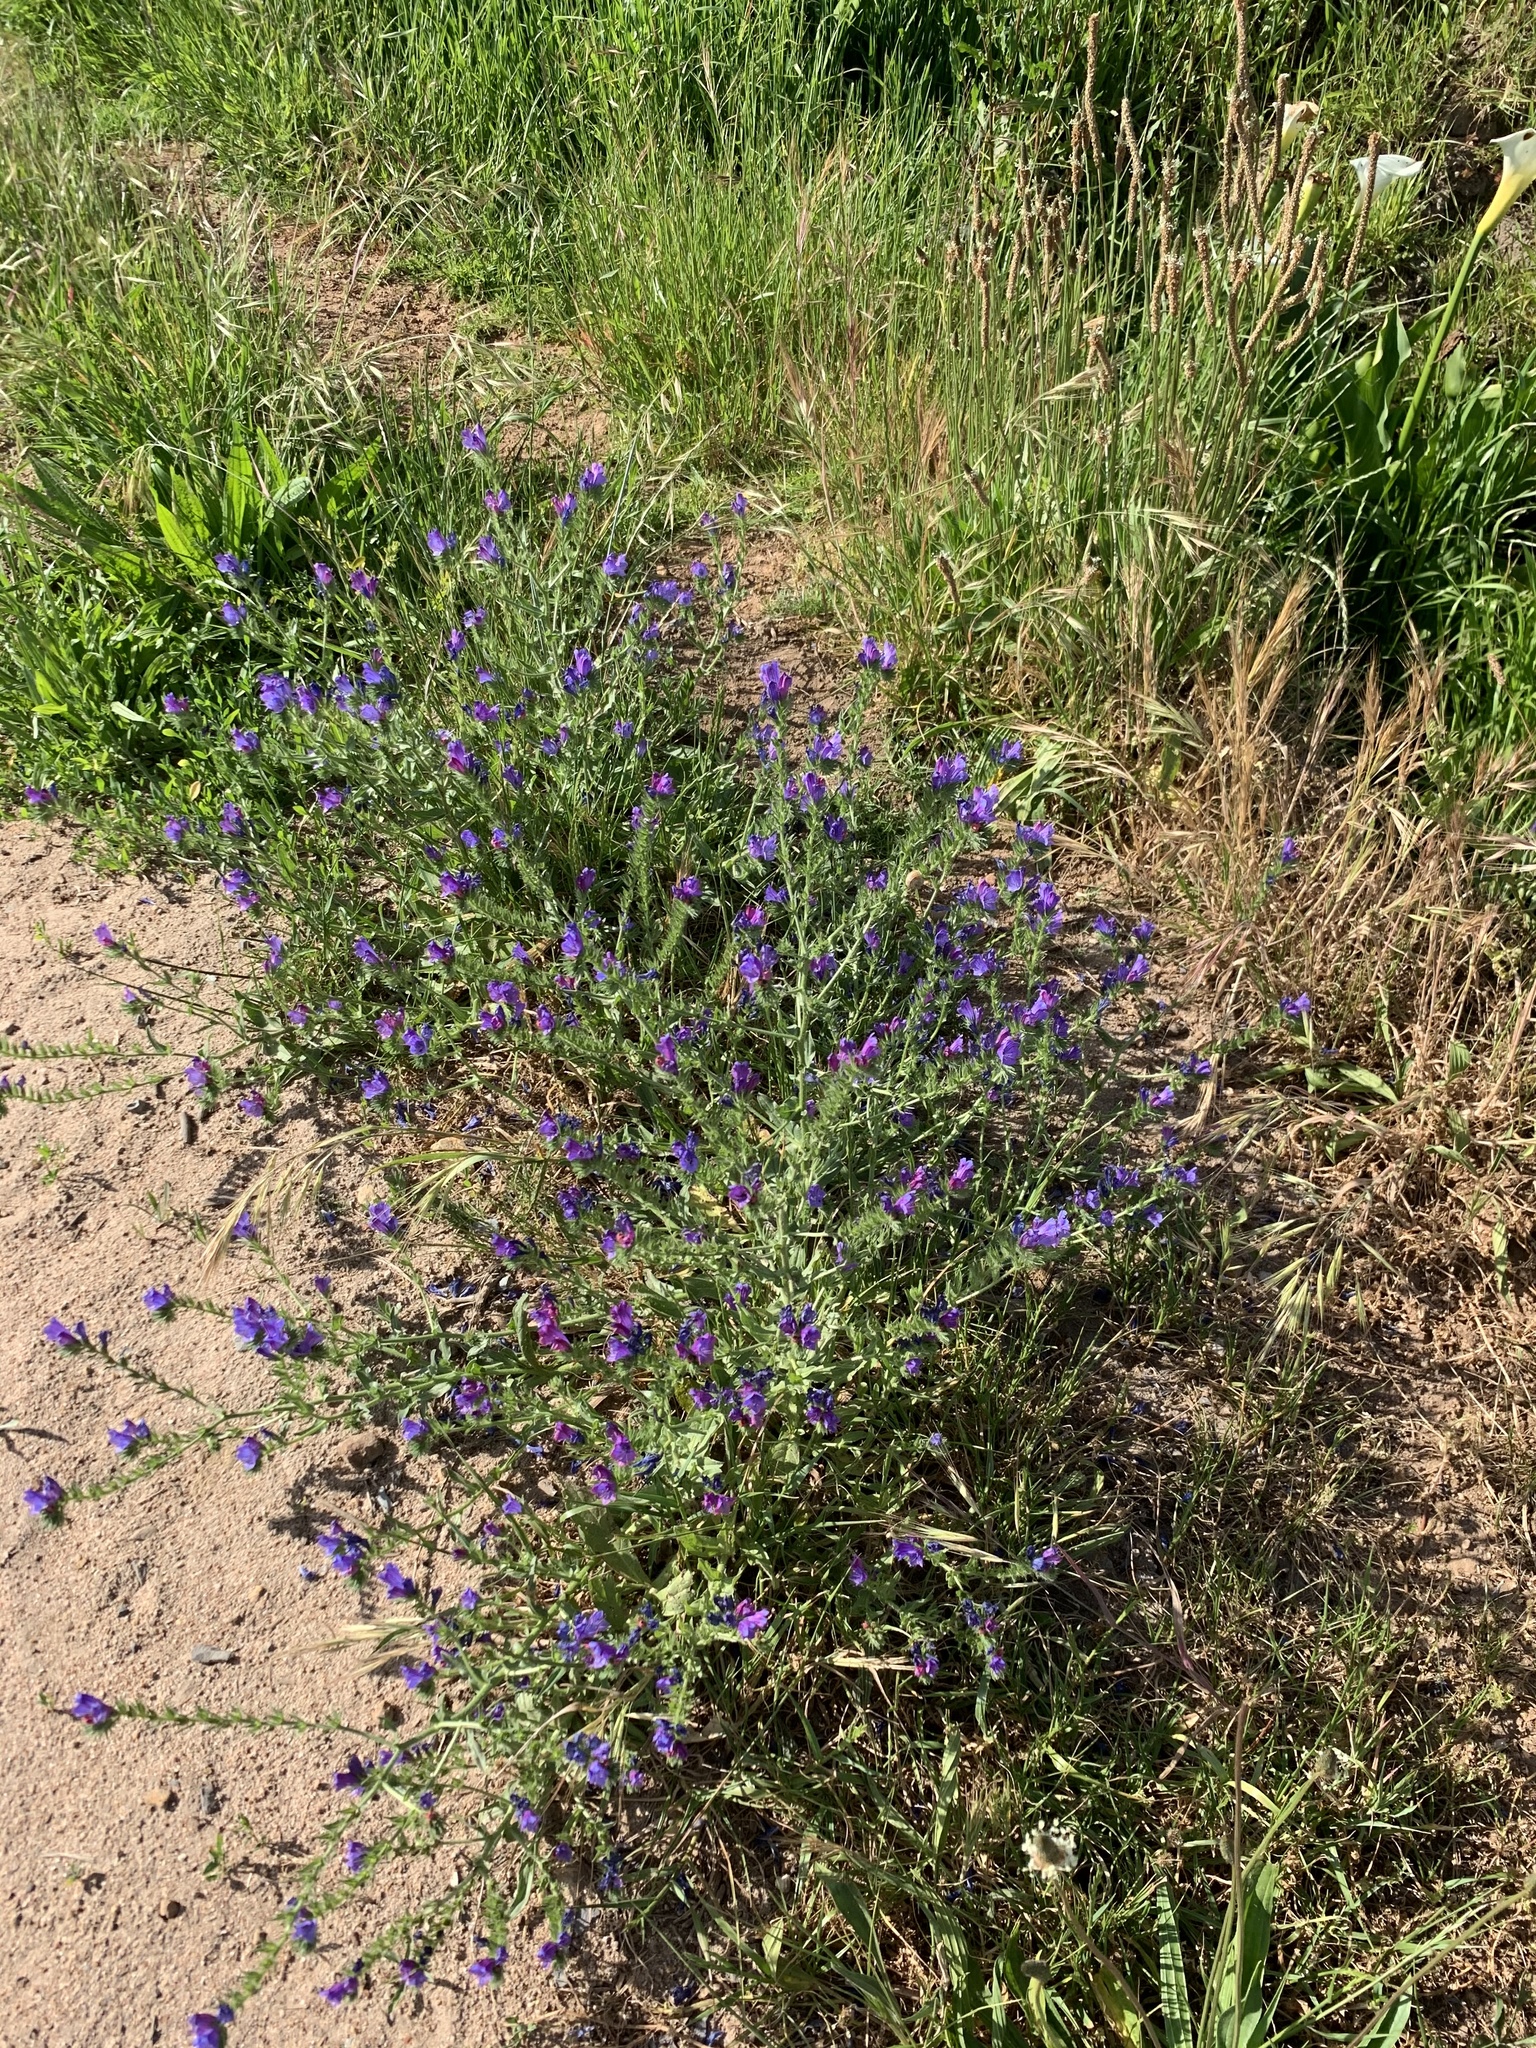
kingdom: Plantae
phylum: Tracheophyta
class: Magnoliopsida
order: Boraginales
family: Boraginaceae
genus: Echium
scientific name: Echium plantagineum
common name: Purple viper's-bugloss
